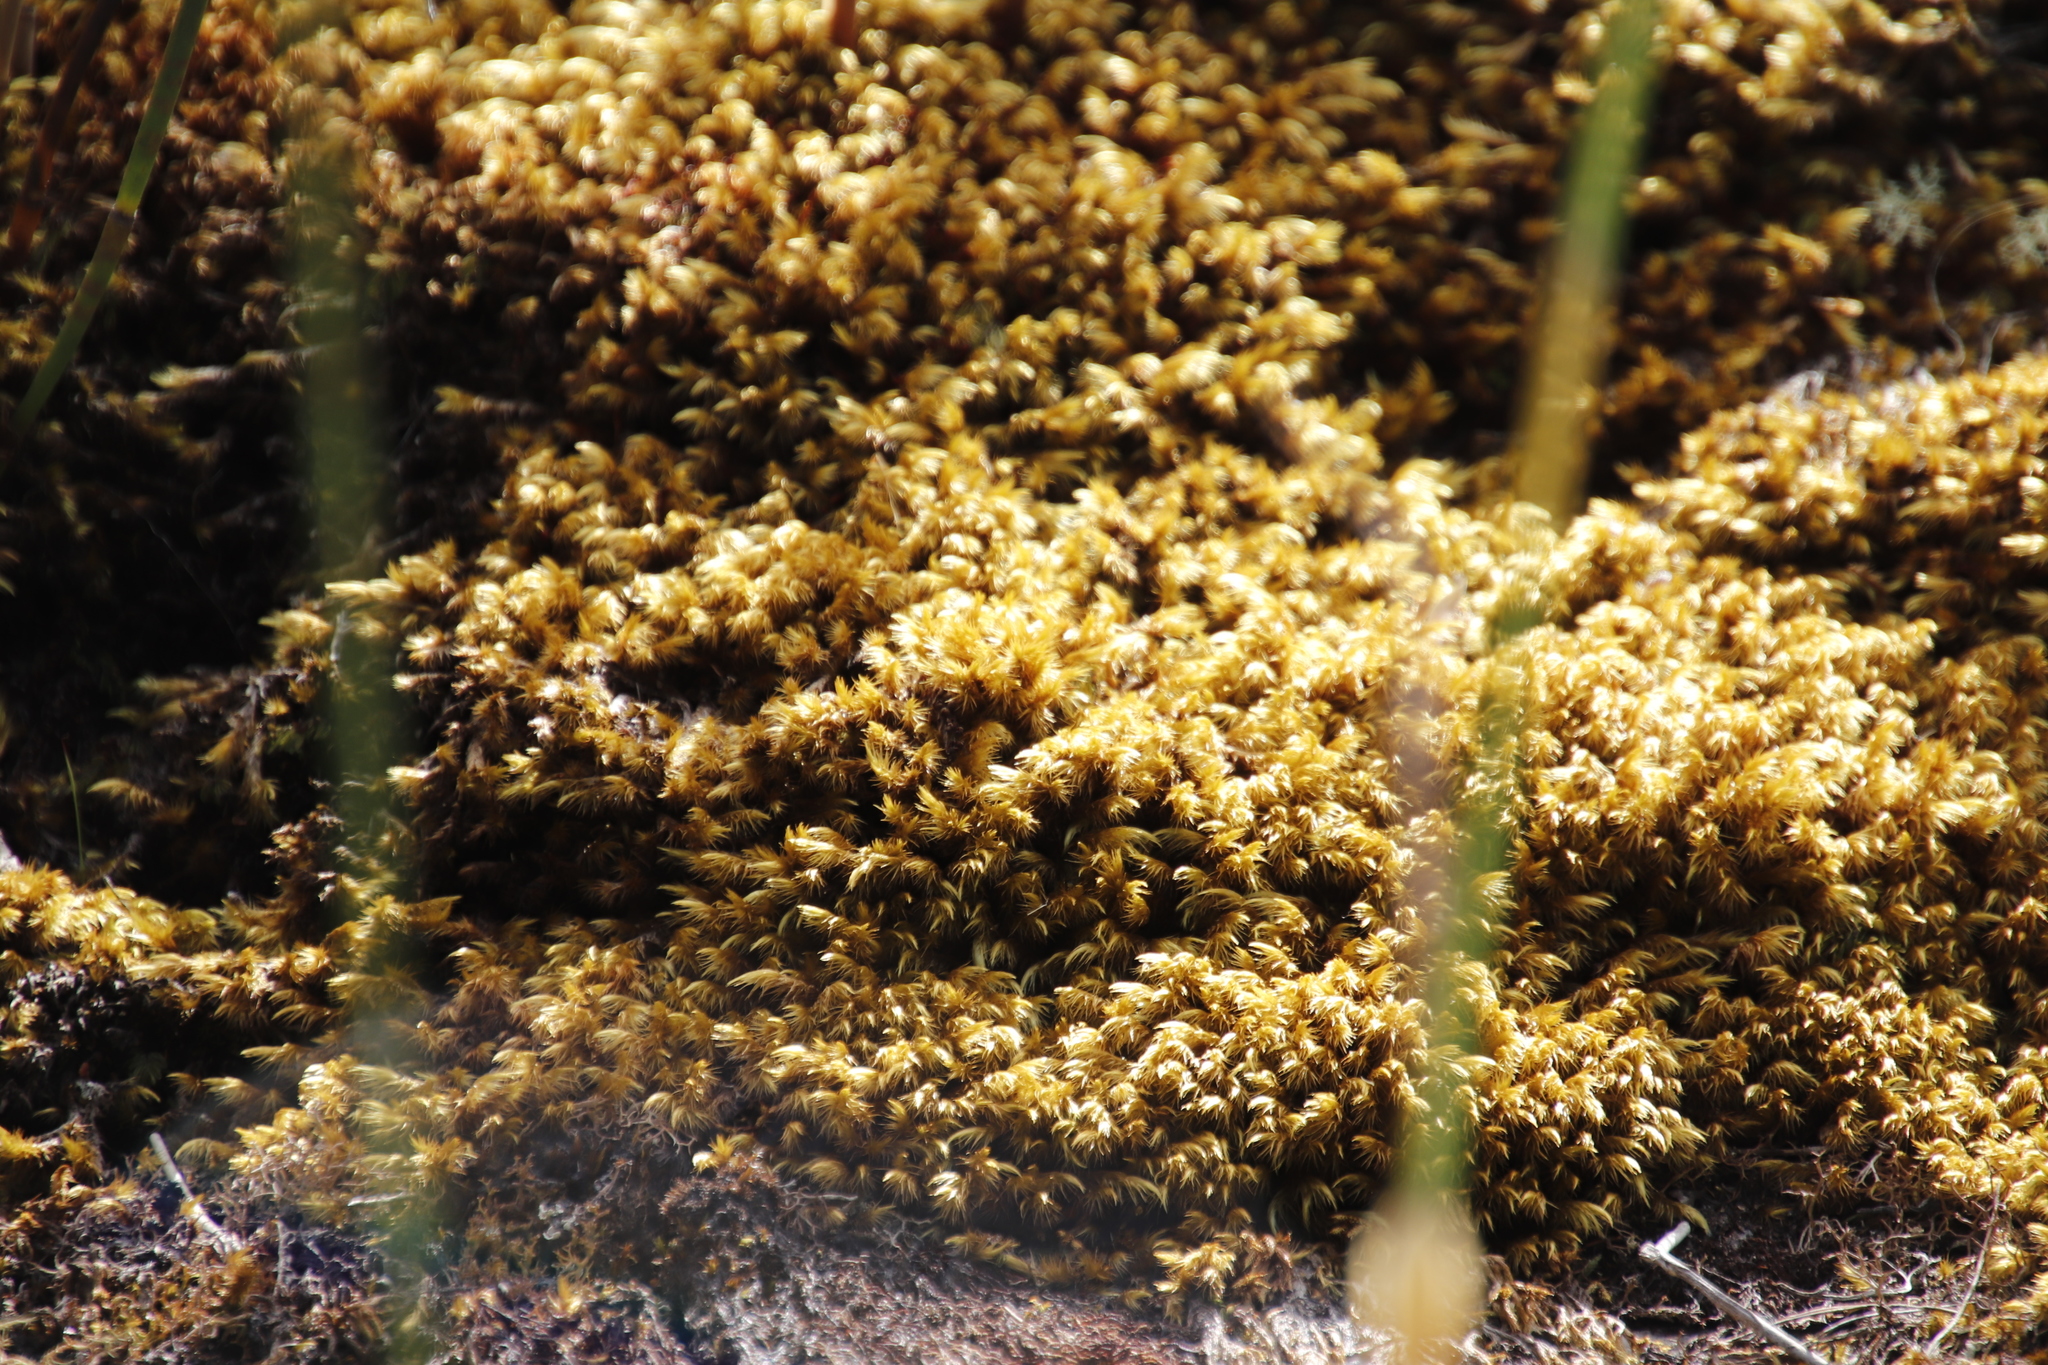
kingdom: Plantae
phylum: Bryophyta
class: Bryopsida
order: Dicranales
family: Dicranaceae
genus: Dicranoloma
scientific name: Dicranoloma billardieri
